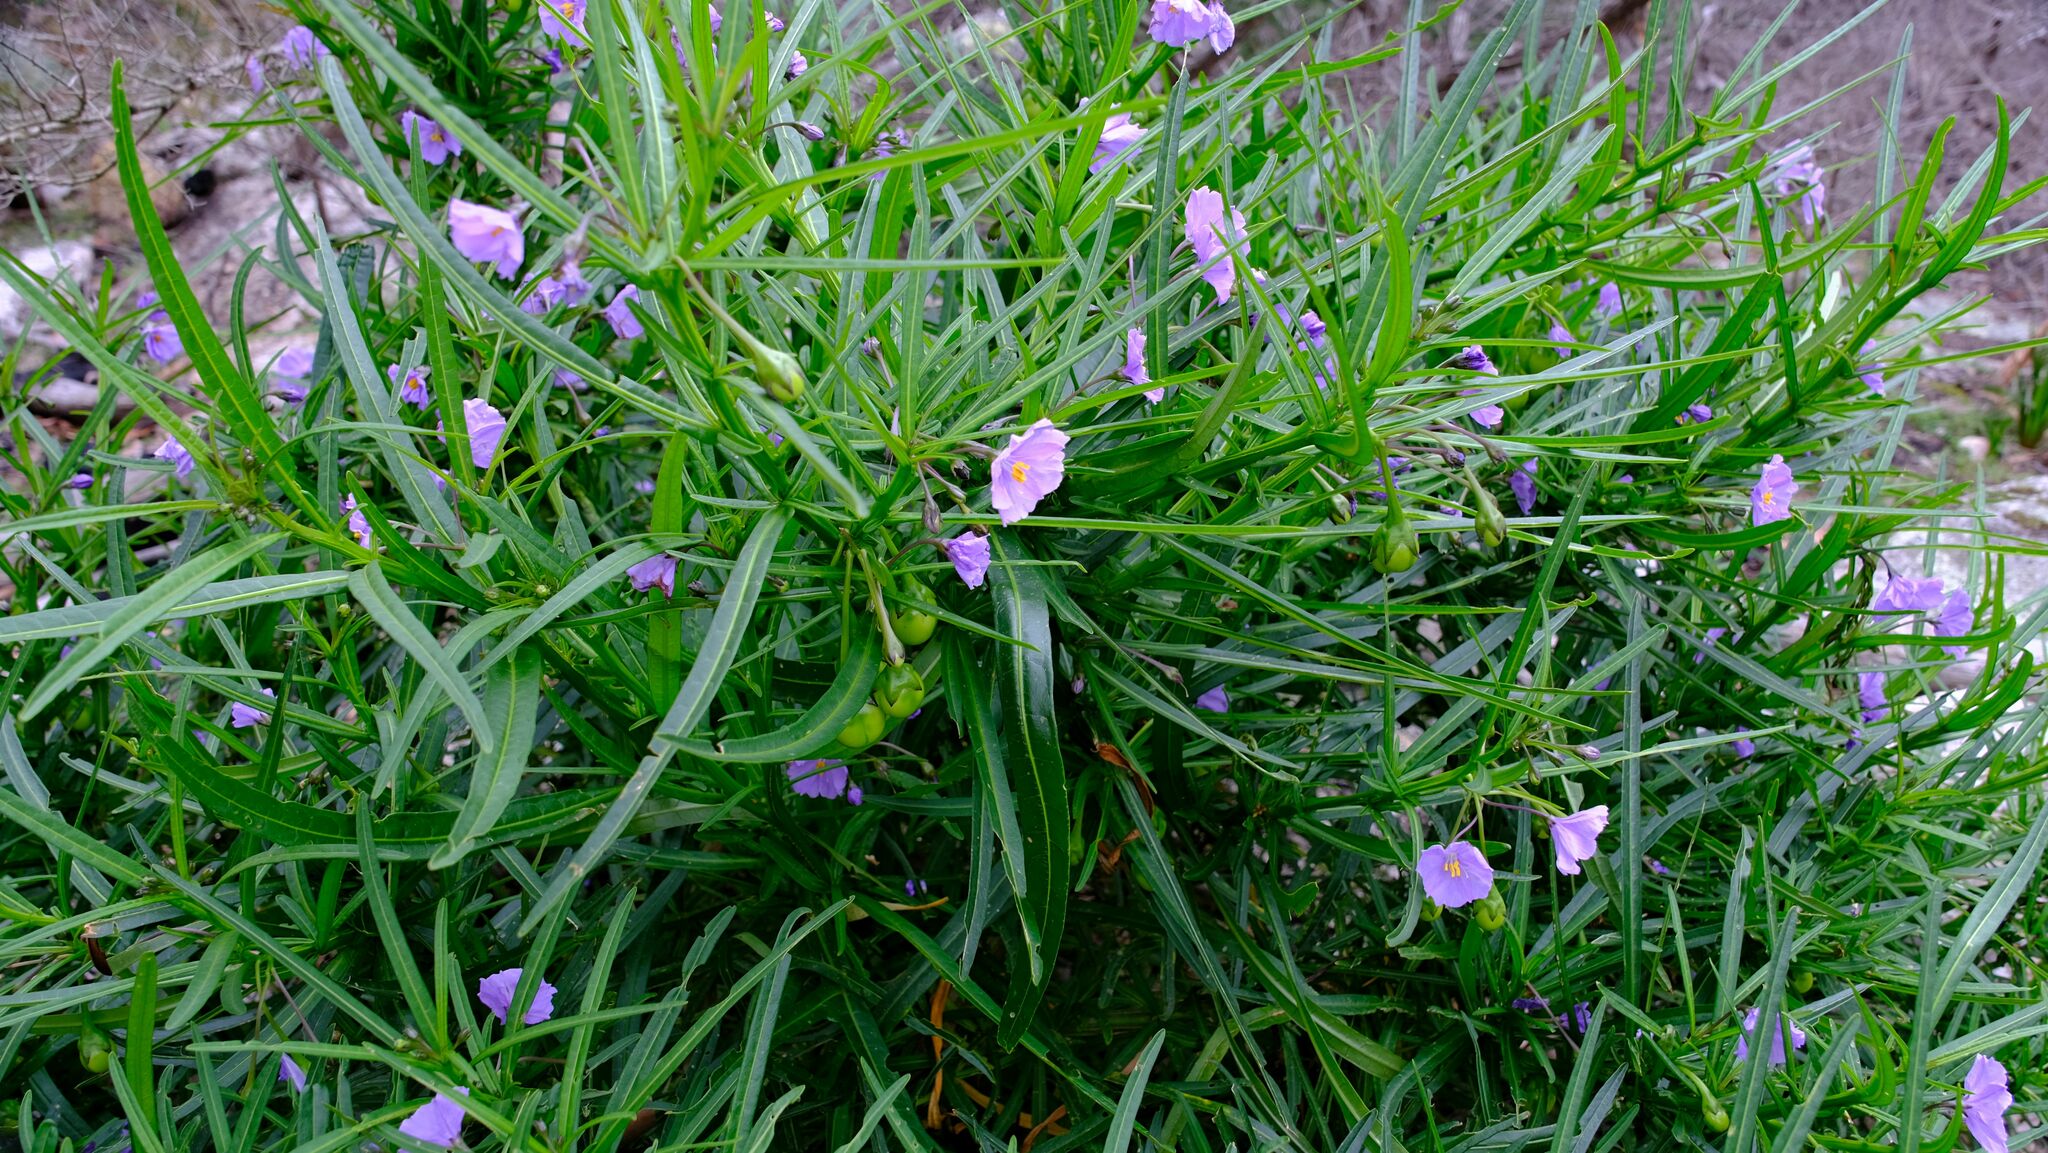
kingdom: Plantae
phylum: Tracheophyta
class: Magnoliopsida
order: Solanales
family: Solanaceae
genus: Solanum
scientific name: Solanum vescum
